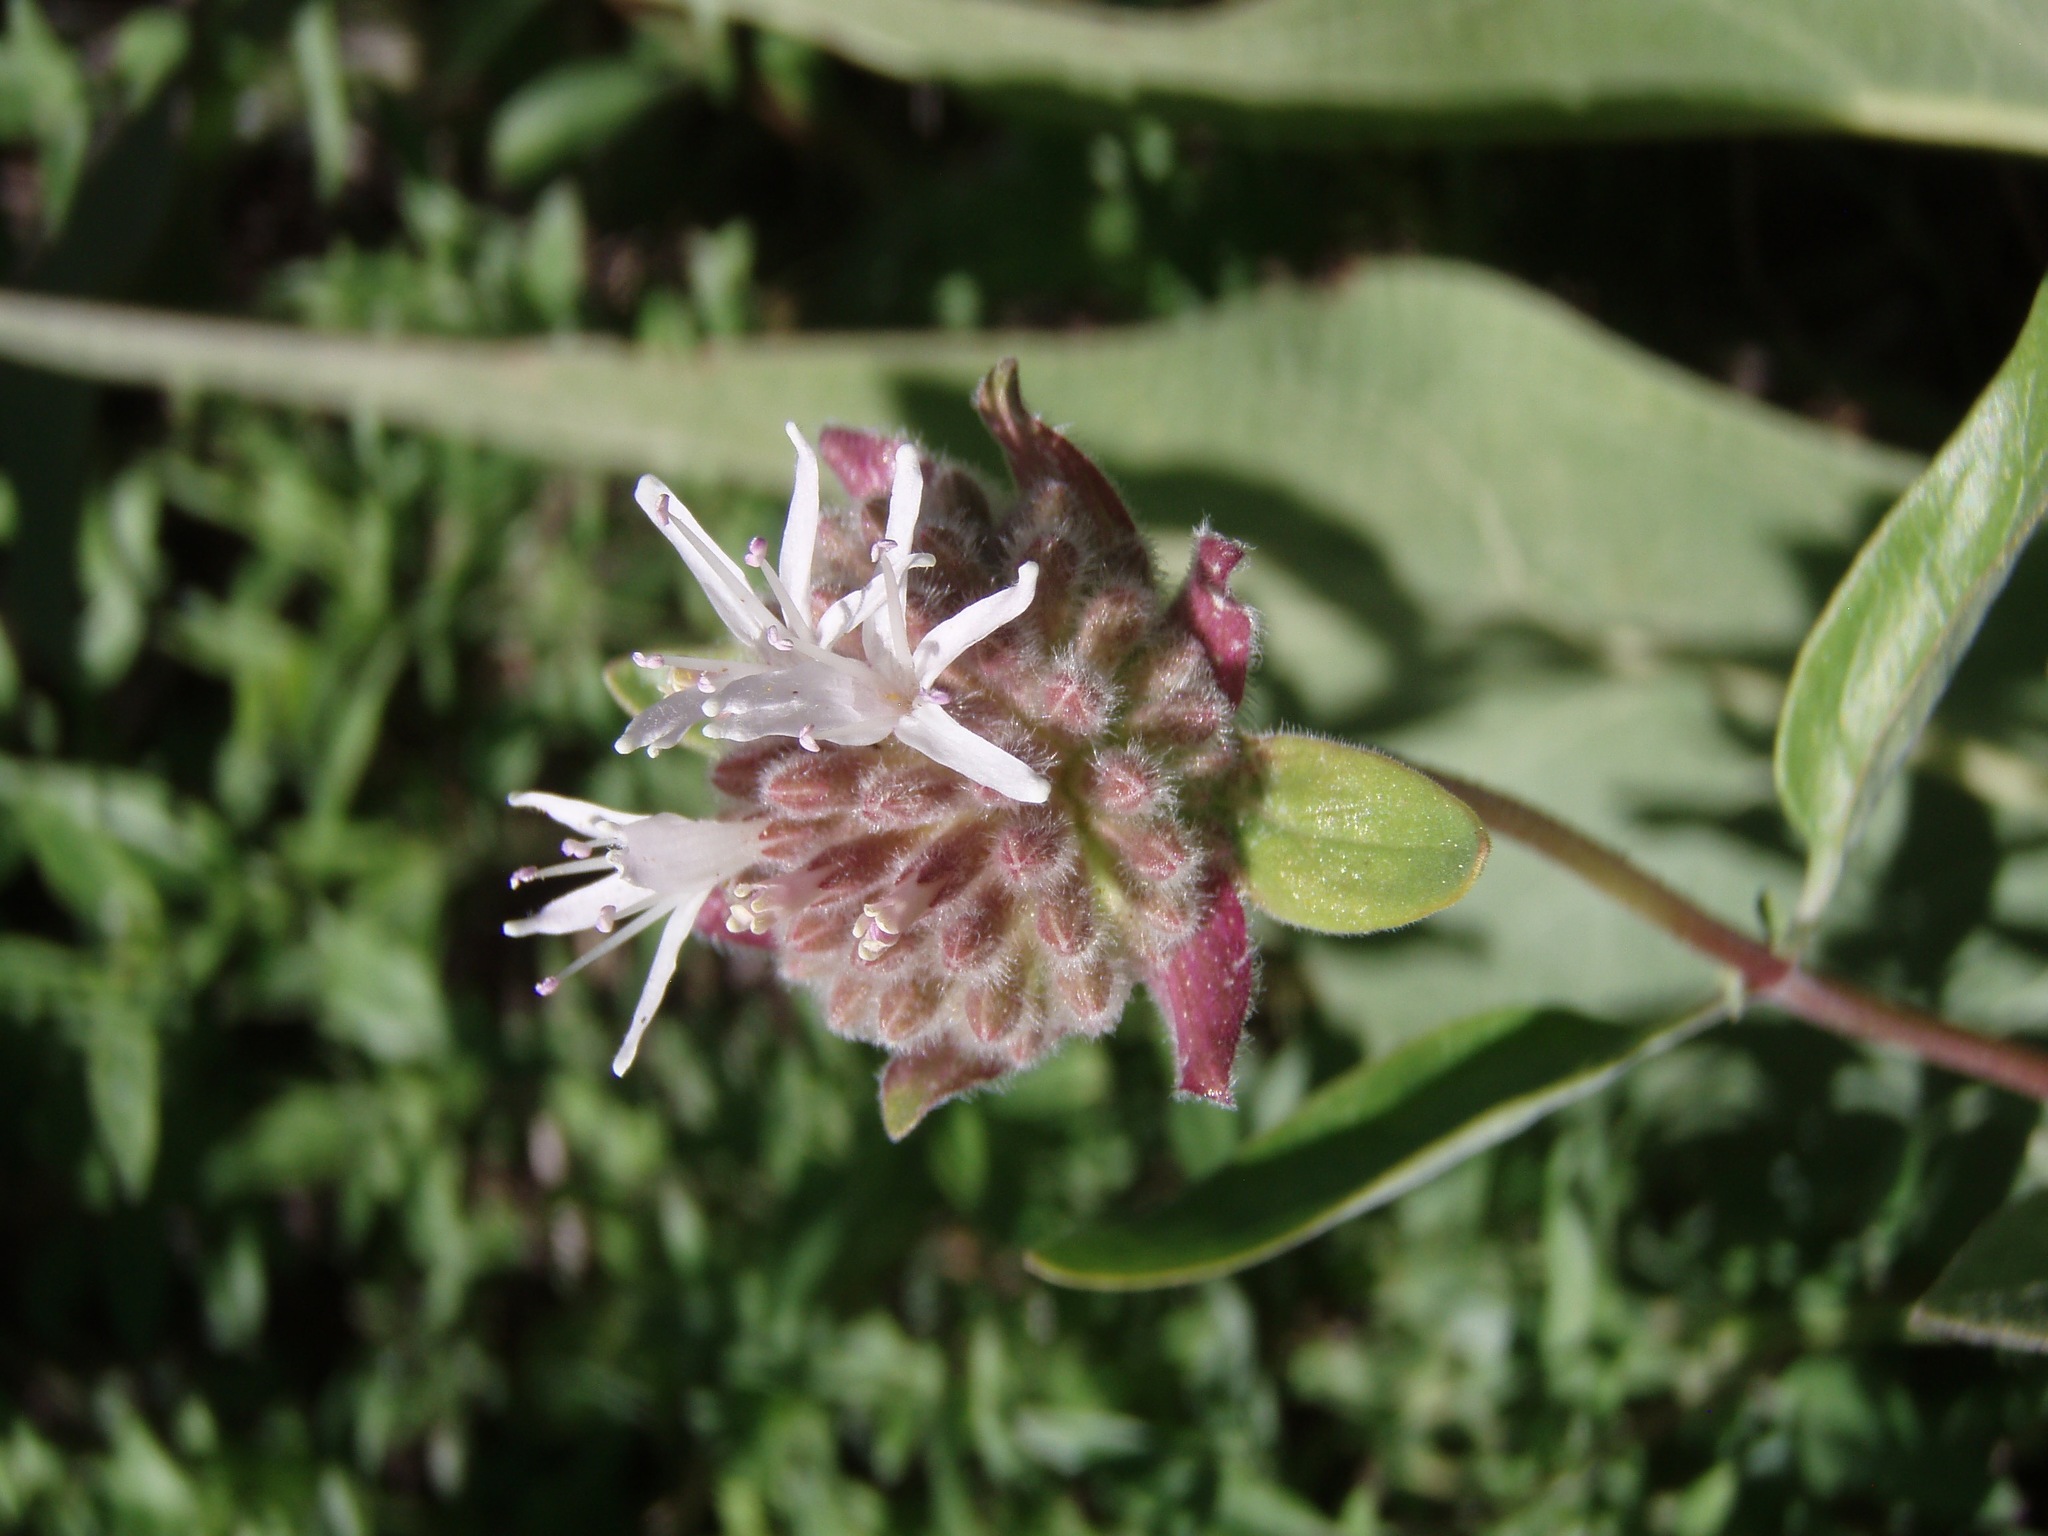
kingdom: Plantae
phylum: Tracheophyta
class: Magnoliopsida
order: Lamiales
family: Lamiaceae
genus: Monardella
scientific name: Monardella sheltonii
